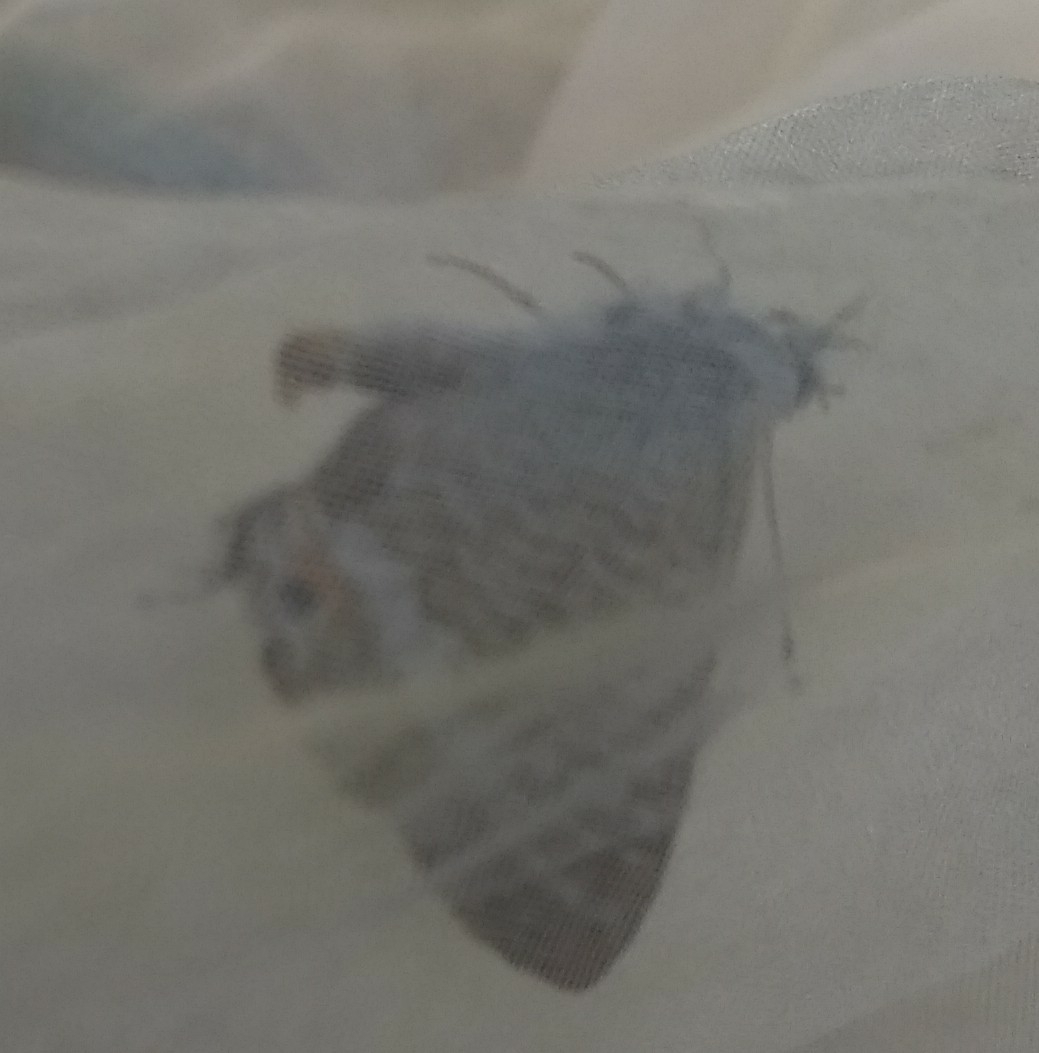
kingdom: Animalia
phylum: Arthropoda
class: Insecta
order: Lepidoptera
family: Lycaenidae
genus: Lampides
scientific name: Lampides boeticus
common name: Long-tailed blue
